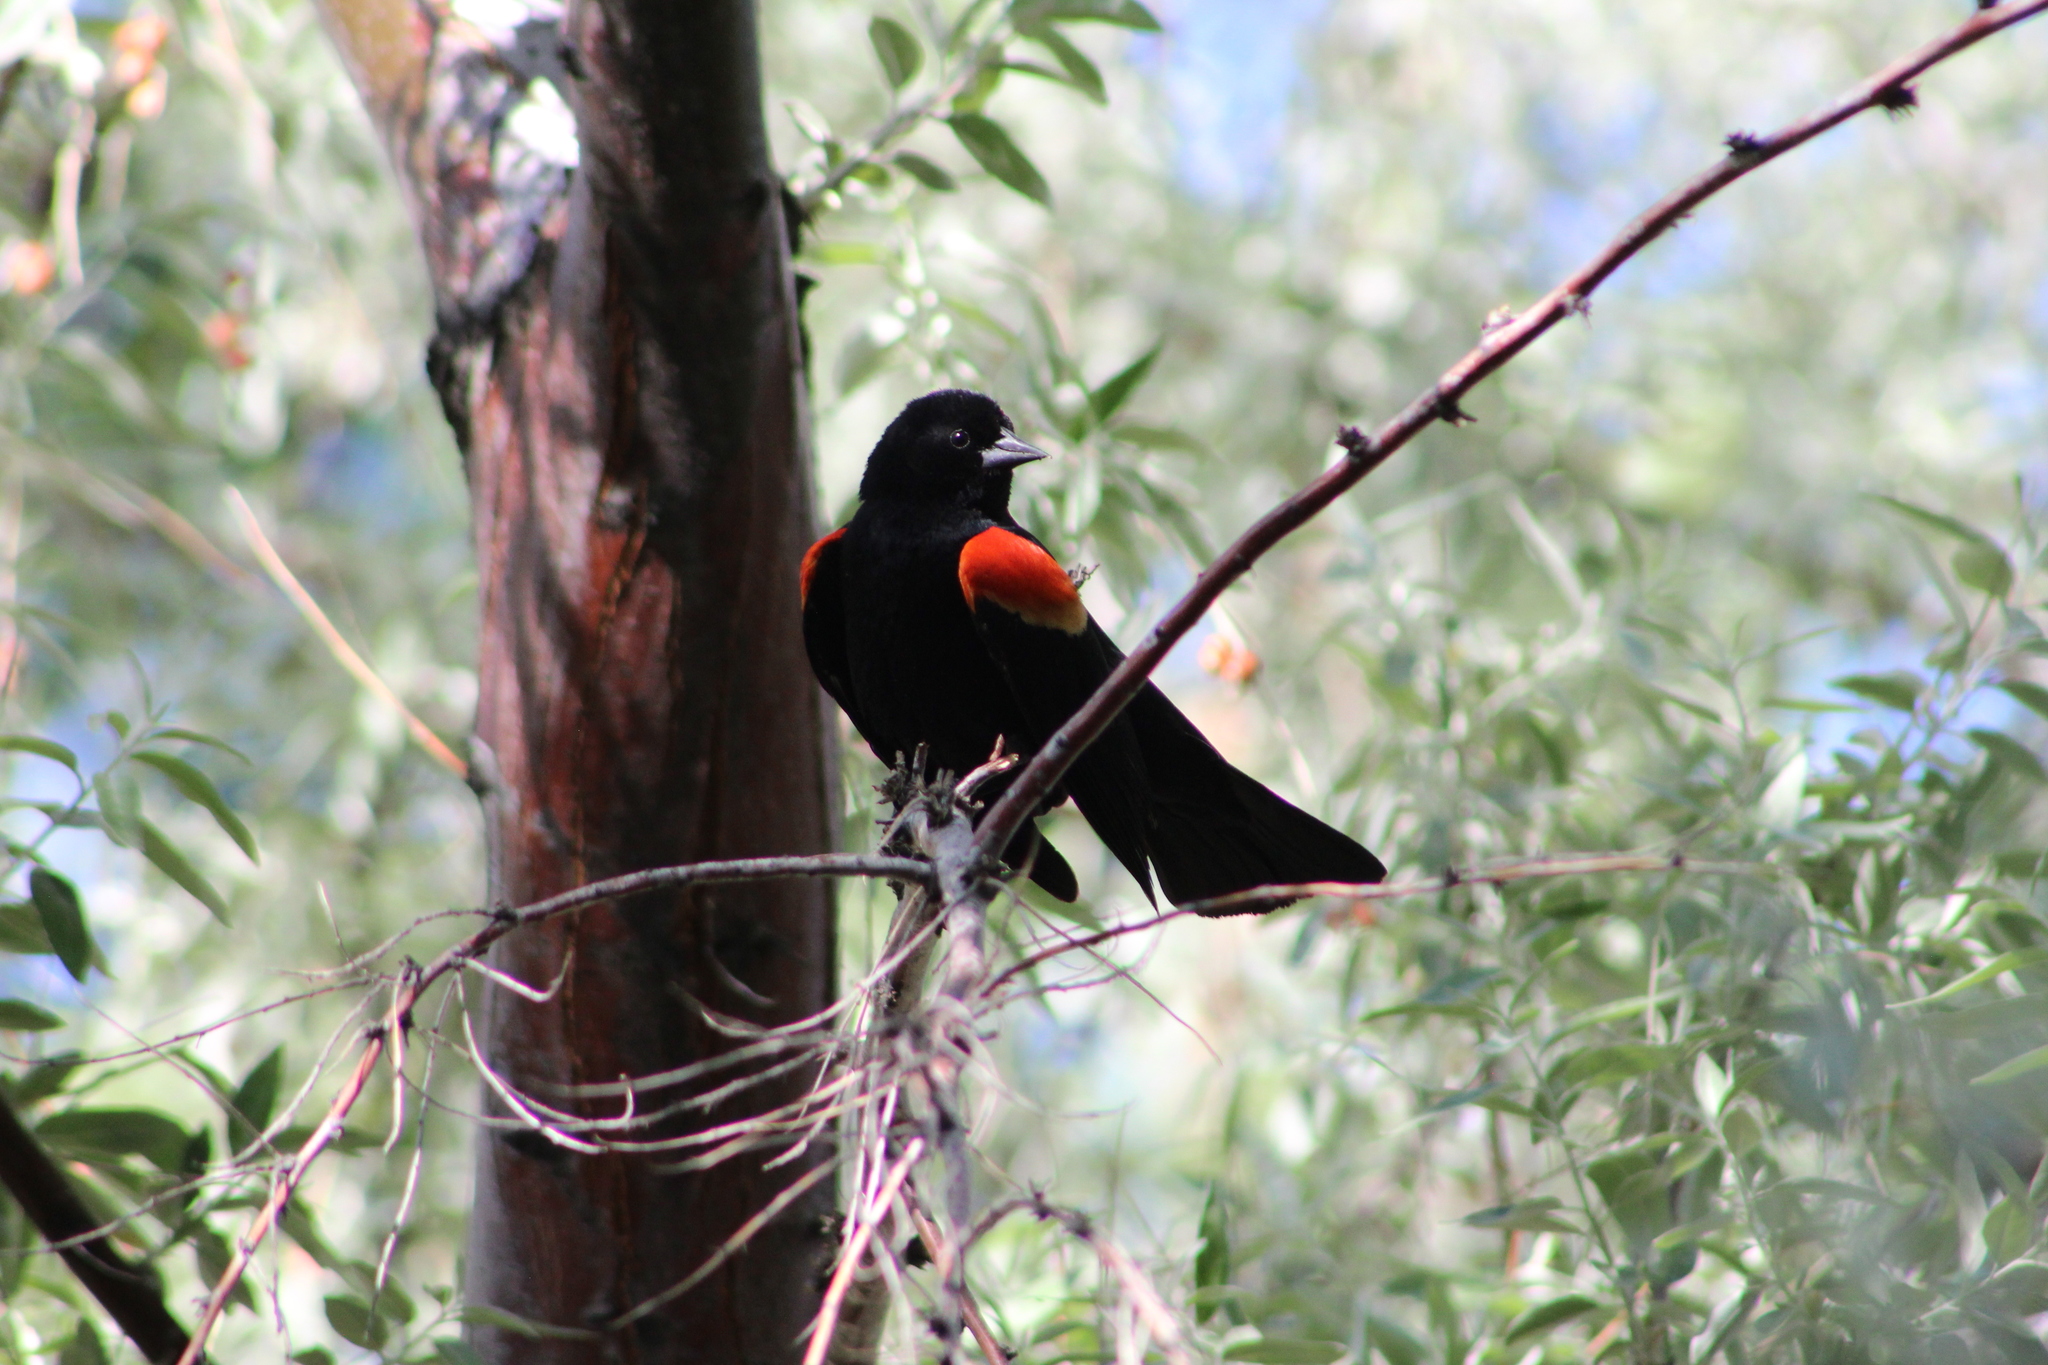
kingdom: Animalia
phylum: Chordata
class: Aves
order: Passeriformes
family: Icteridae
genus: Agelaius
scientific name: Agelaius phoeniceus
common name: Red-winged blackbird
